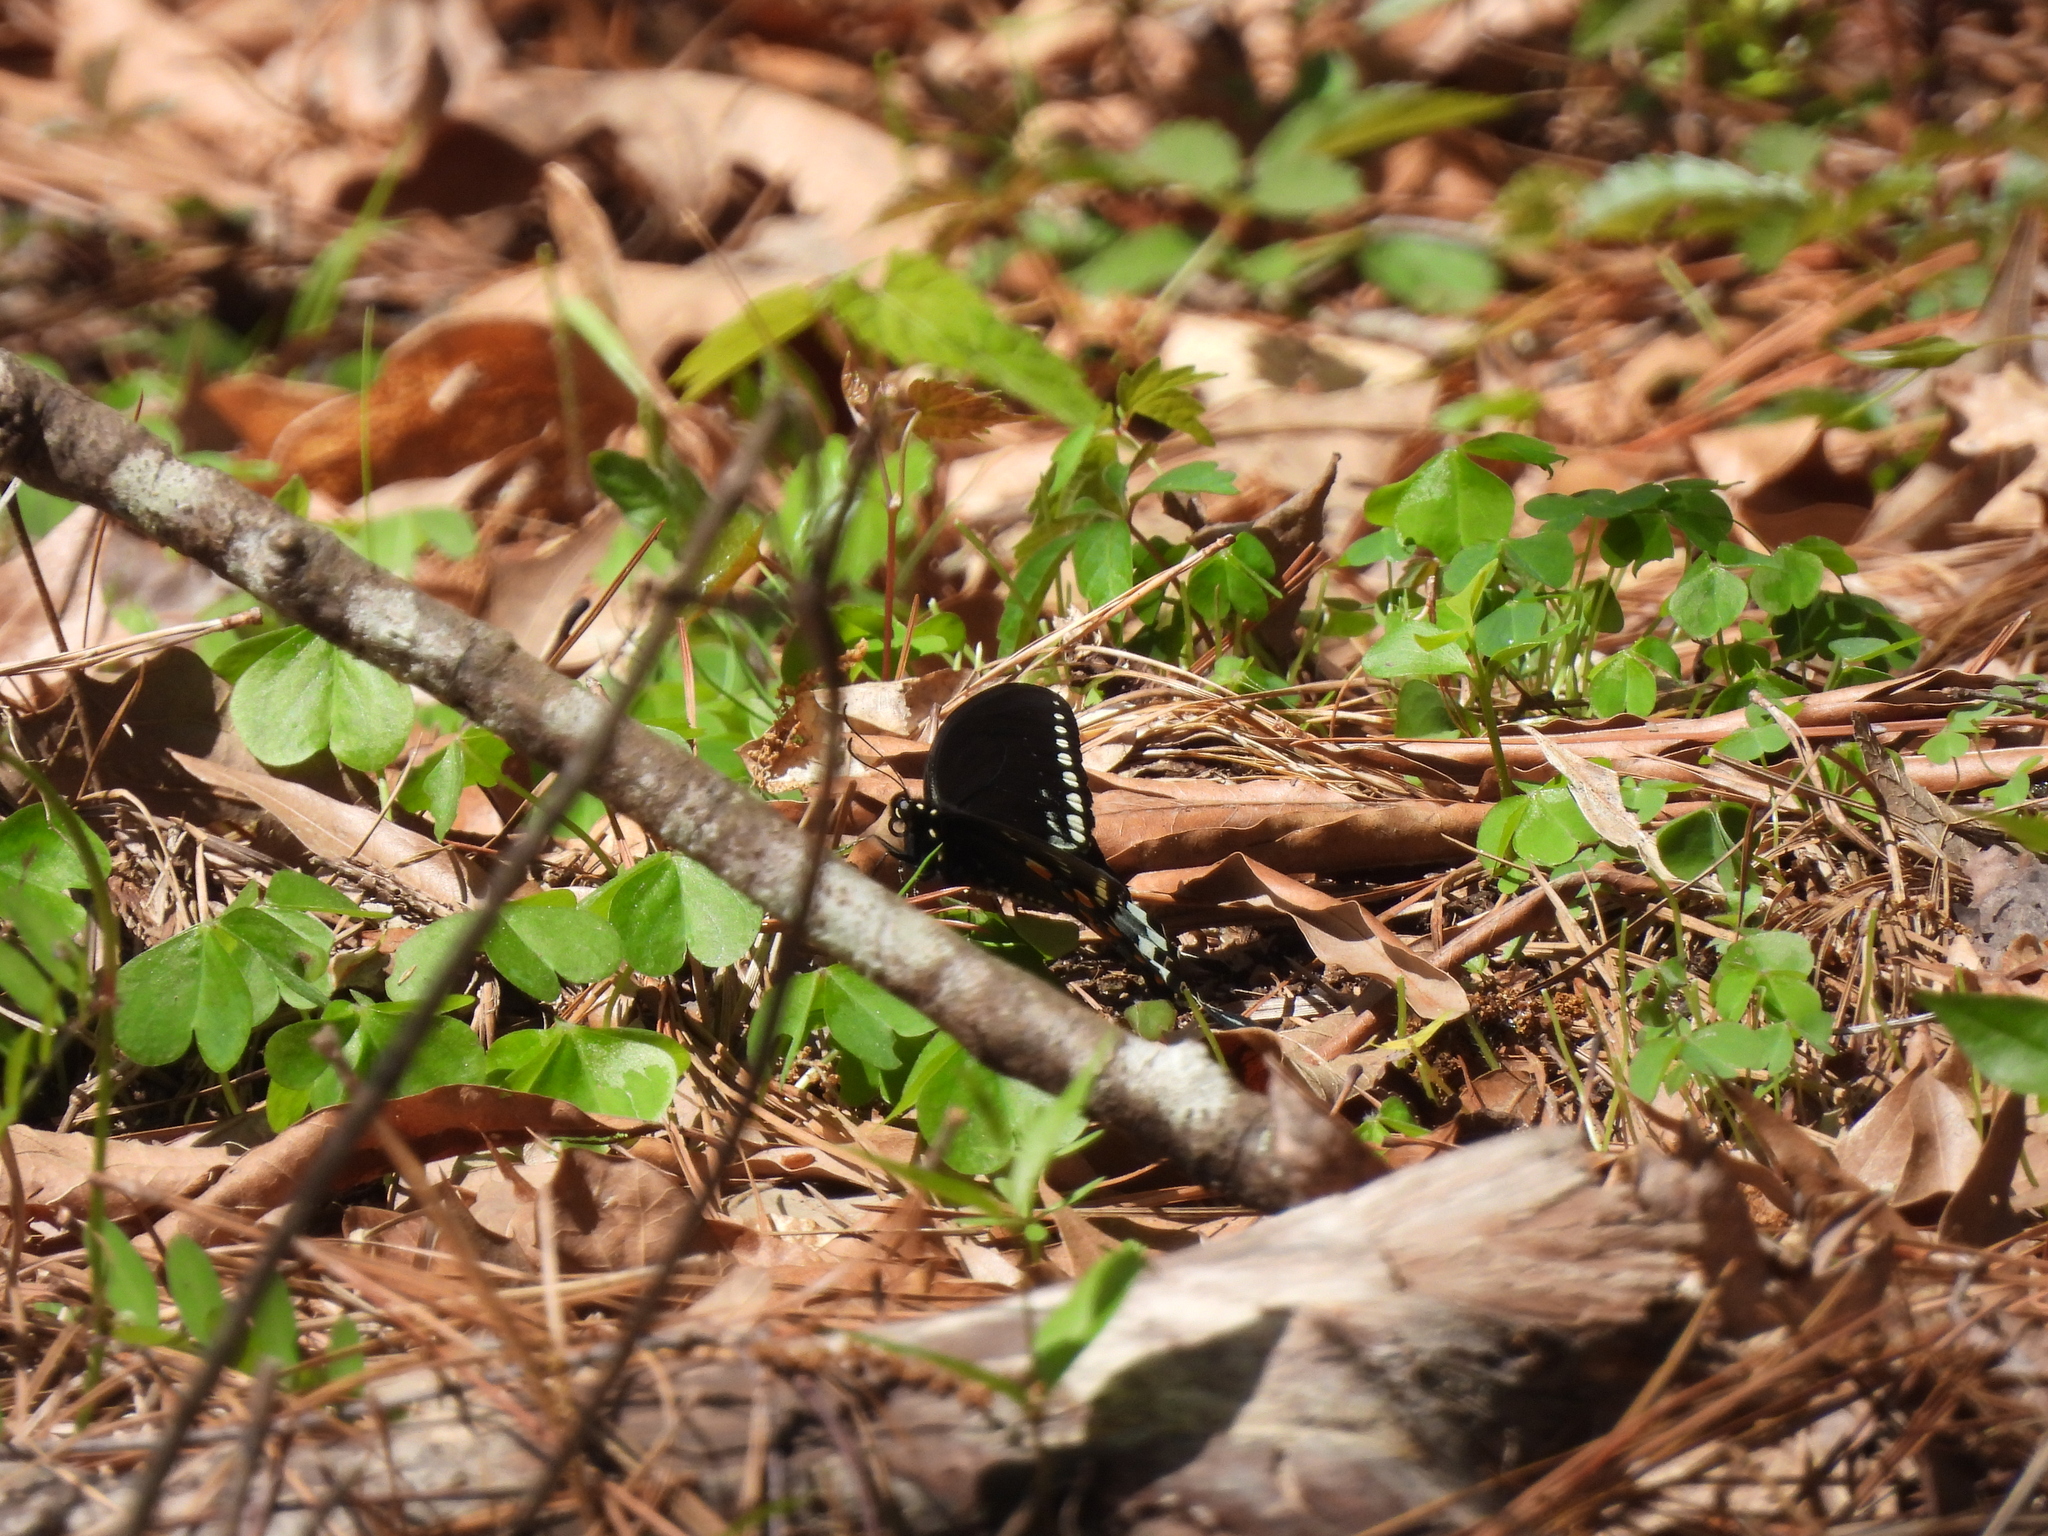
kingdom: Animalia
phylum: Arthropoda
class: Insecta
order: Lepidoptera
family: Papilionidae
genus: Papilio
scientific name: Papilio troilus
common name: Spicebush swallowtail
